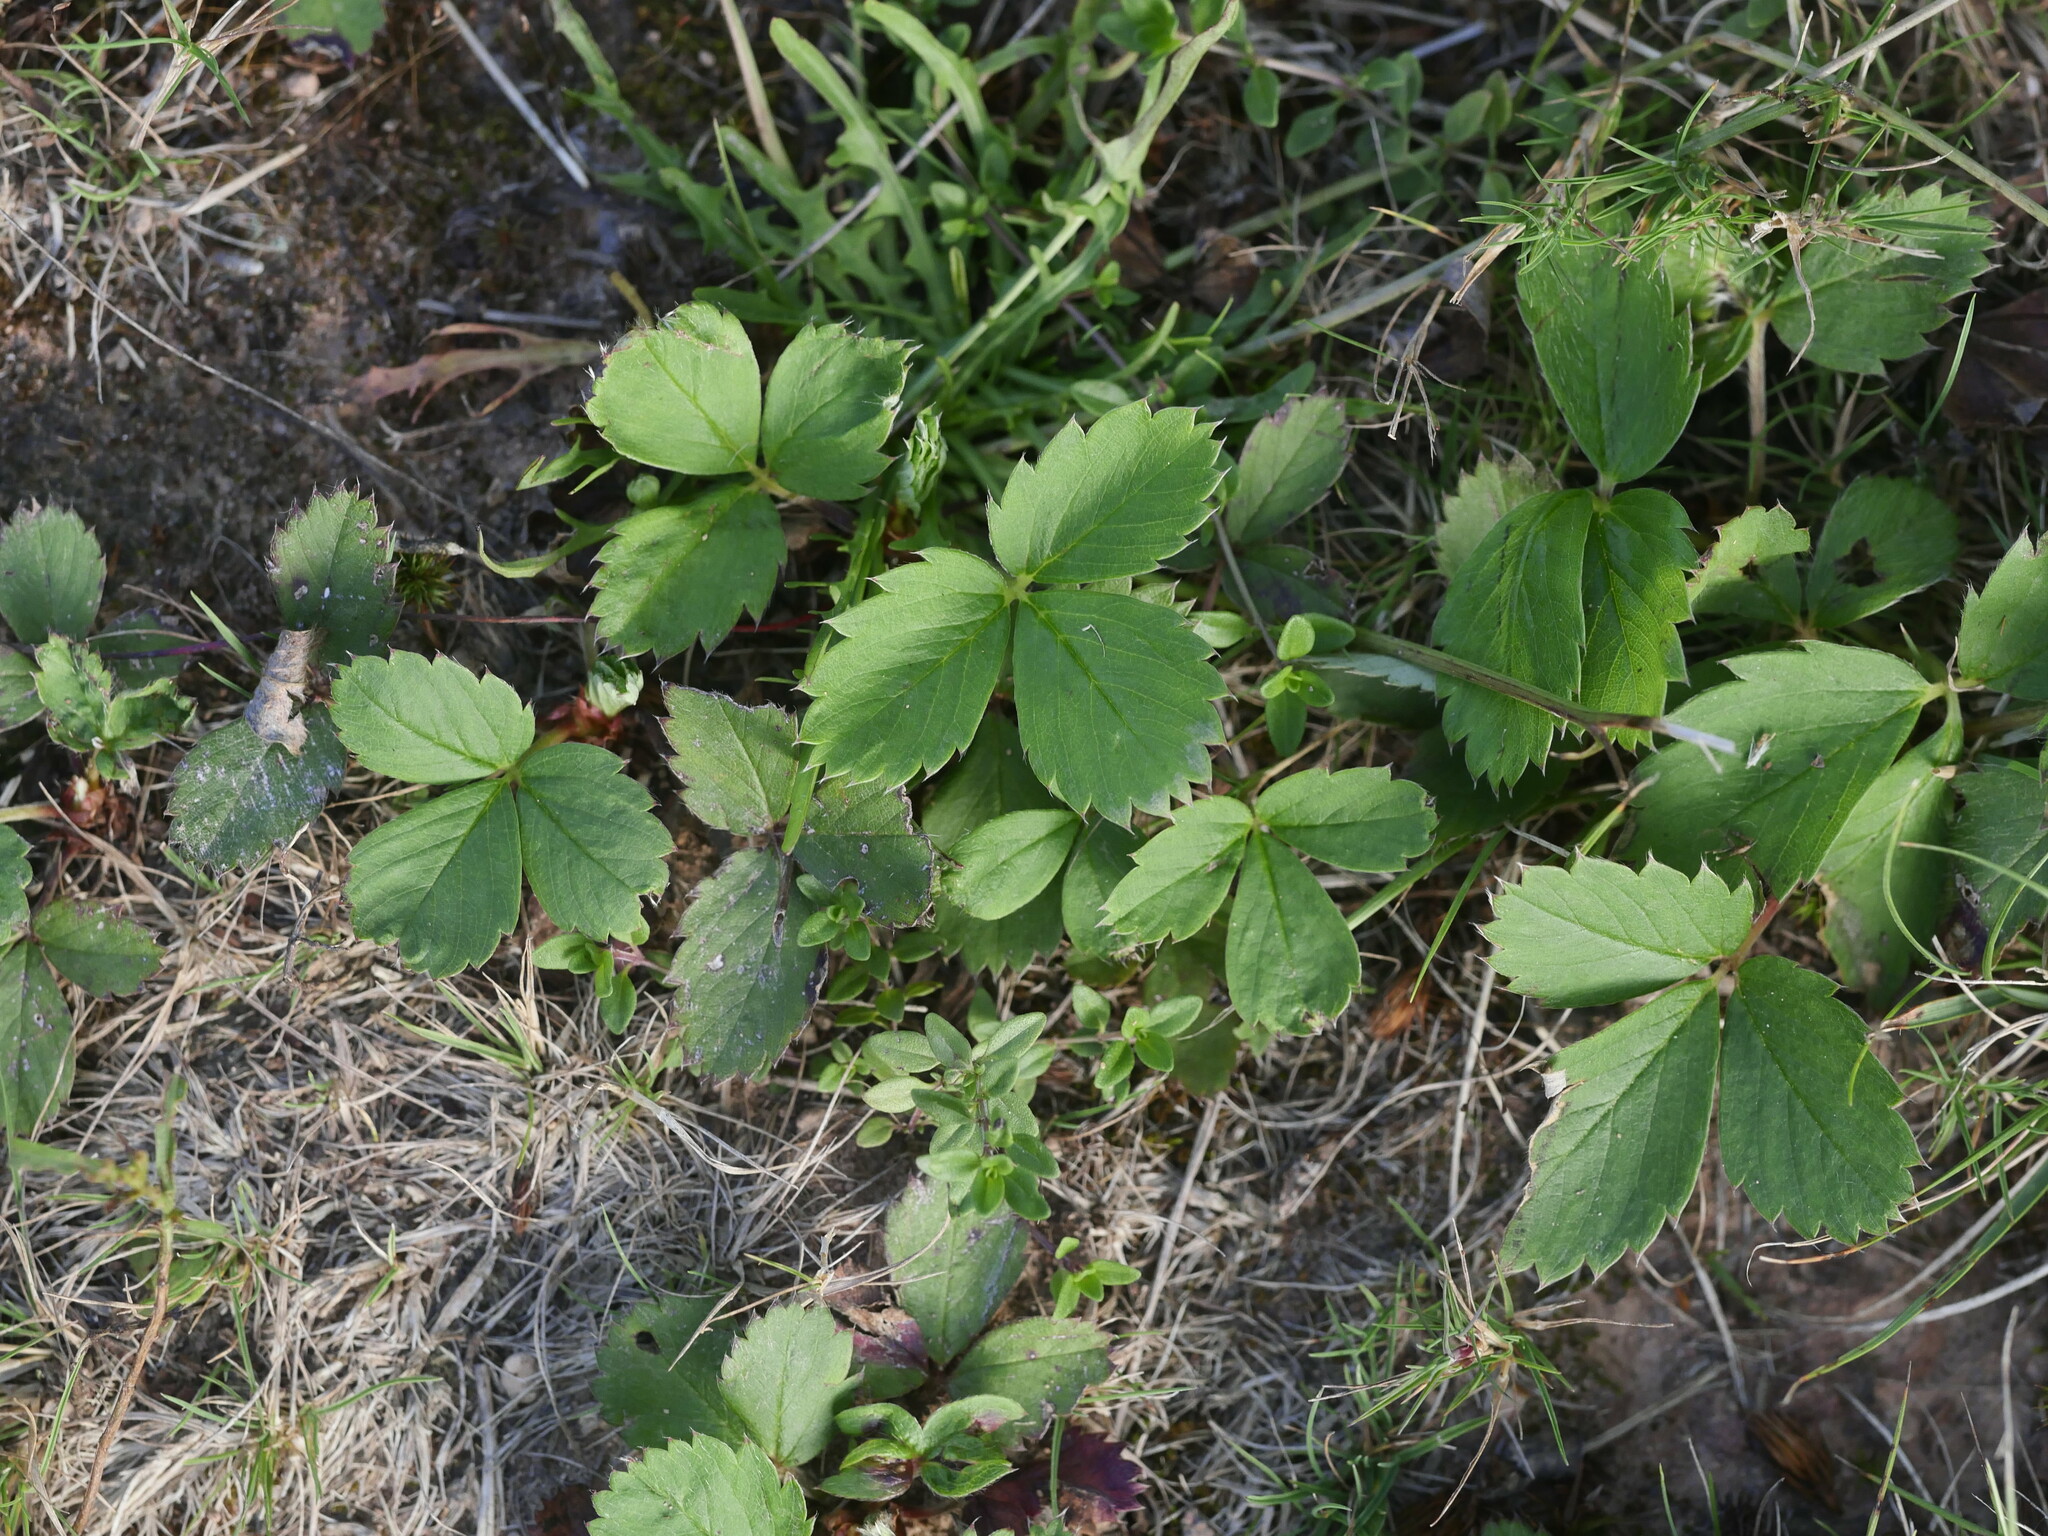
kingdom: Plantae
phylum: Tracheophyta
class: Magnoliopsida
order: Rosales
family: Rosaceae
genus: Fragaria
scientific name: Fragaria virginiana
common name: Thickleaved wild strawberry
